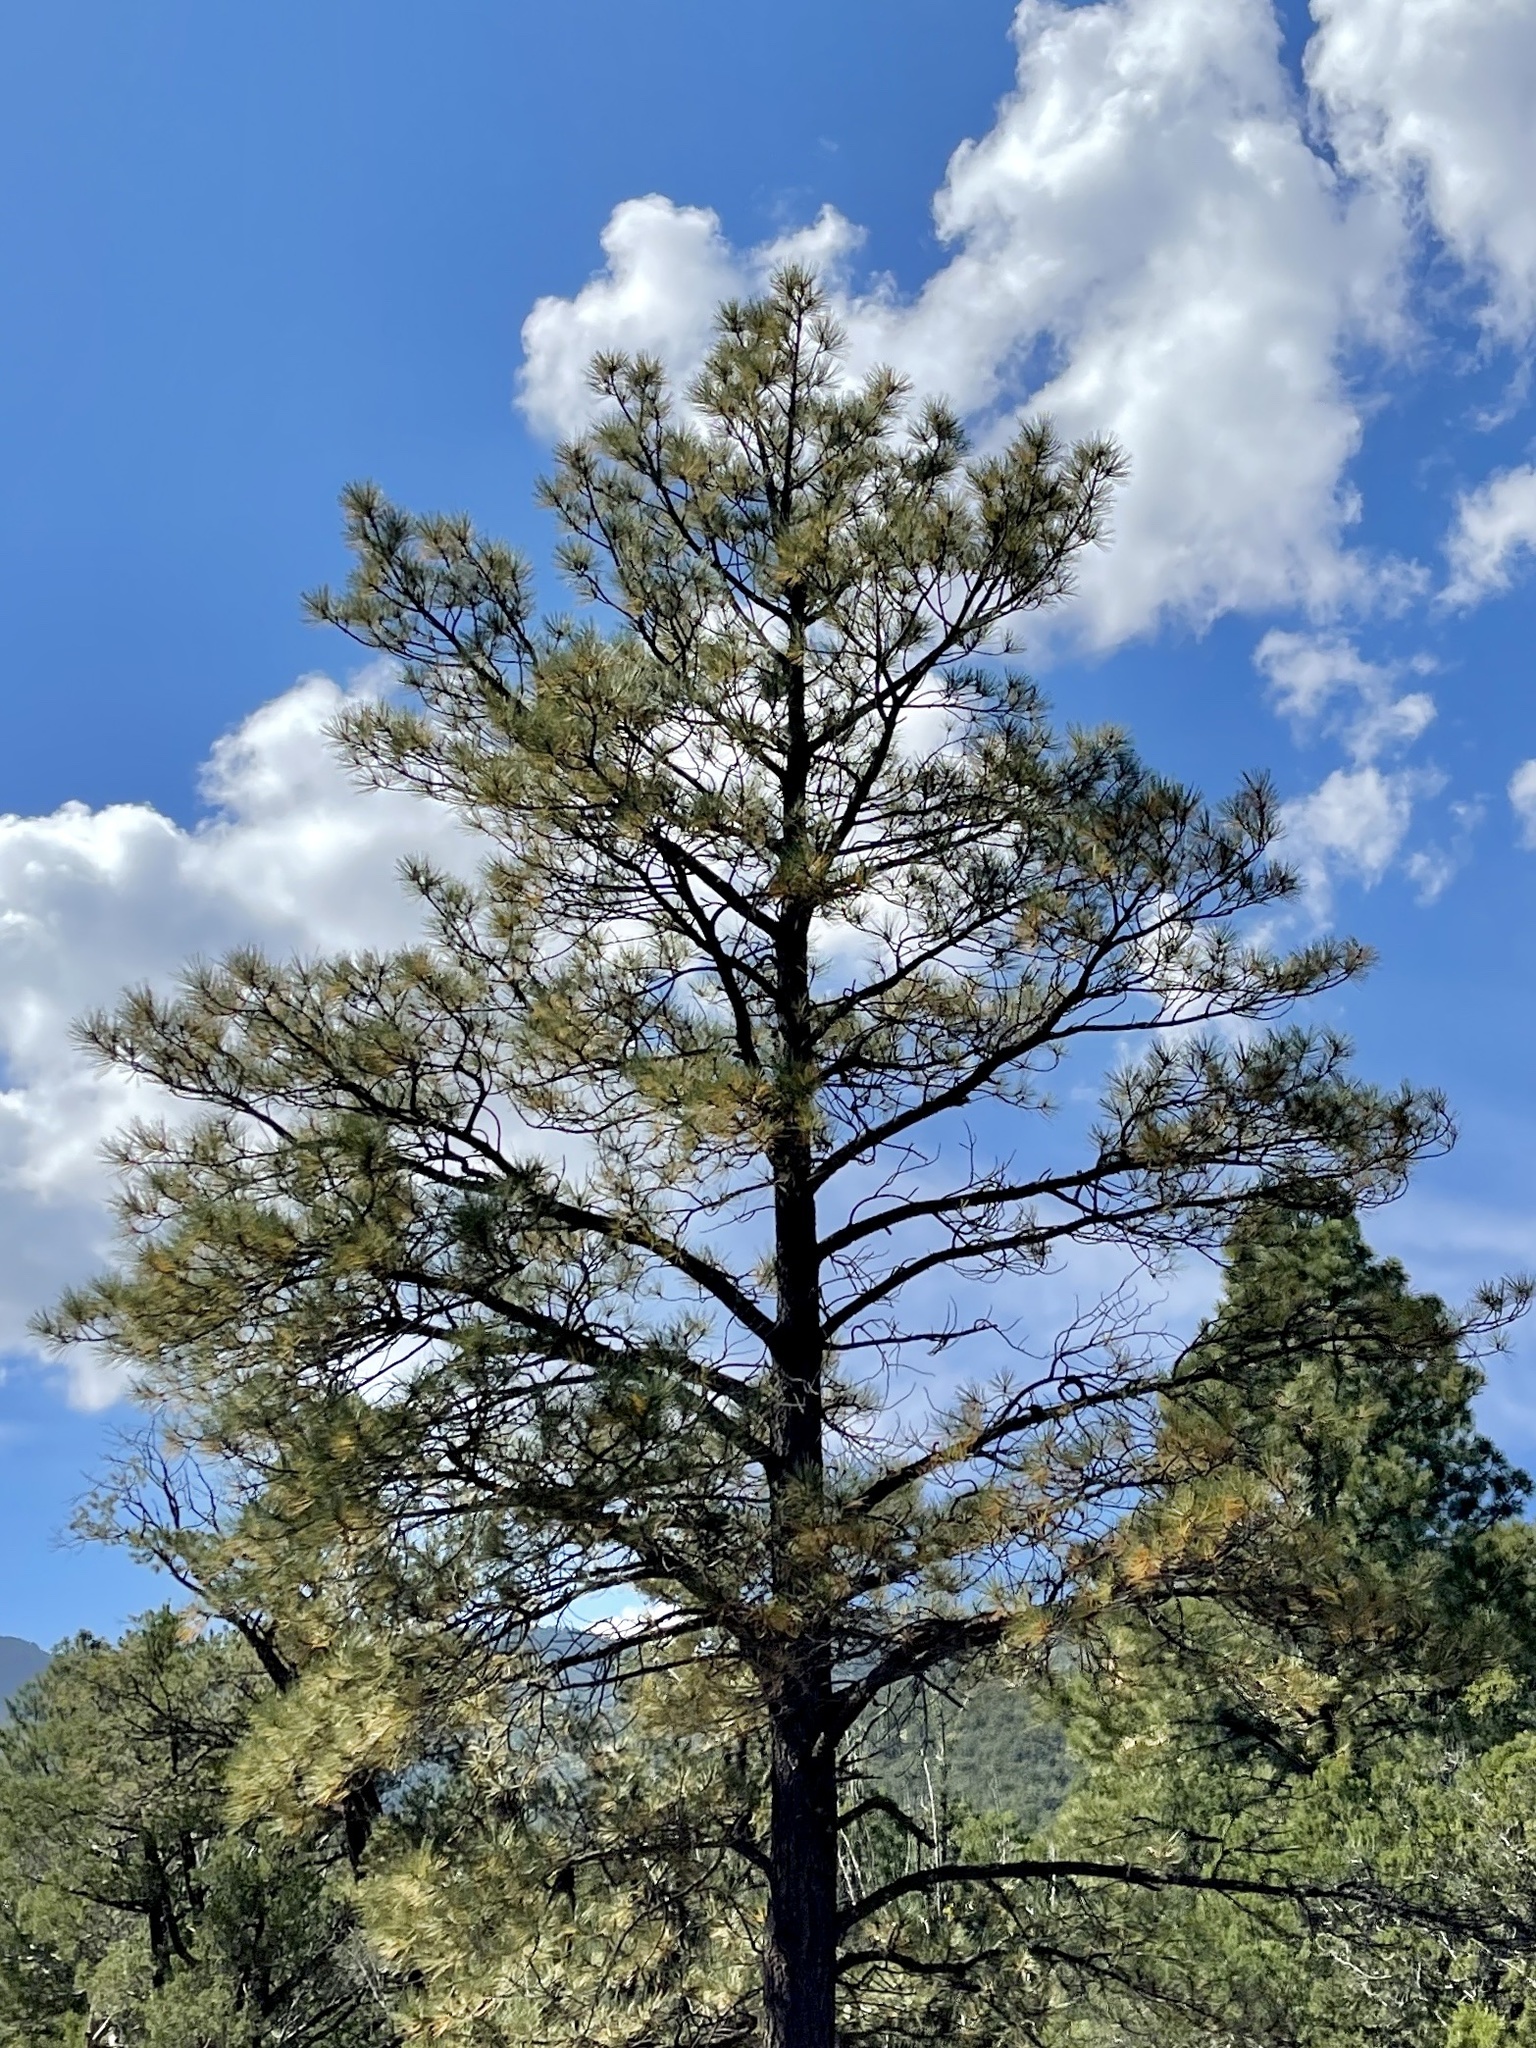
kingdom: Plantae
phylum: Tracheophyta
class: Pinopsida
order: Pinales
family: Pinaceae
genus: Pinus
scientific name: Pinus ponderosa
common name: Western yellow-pine
